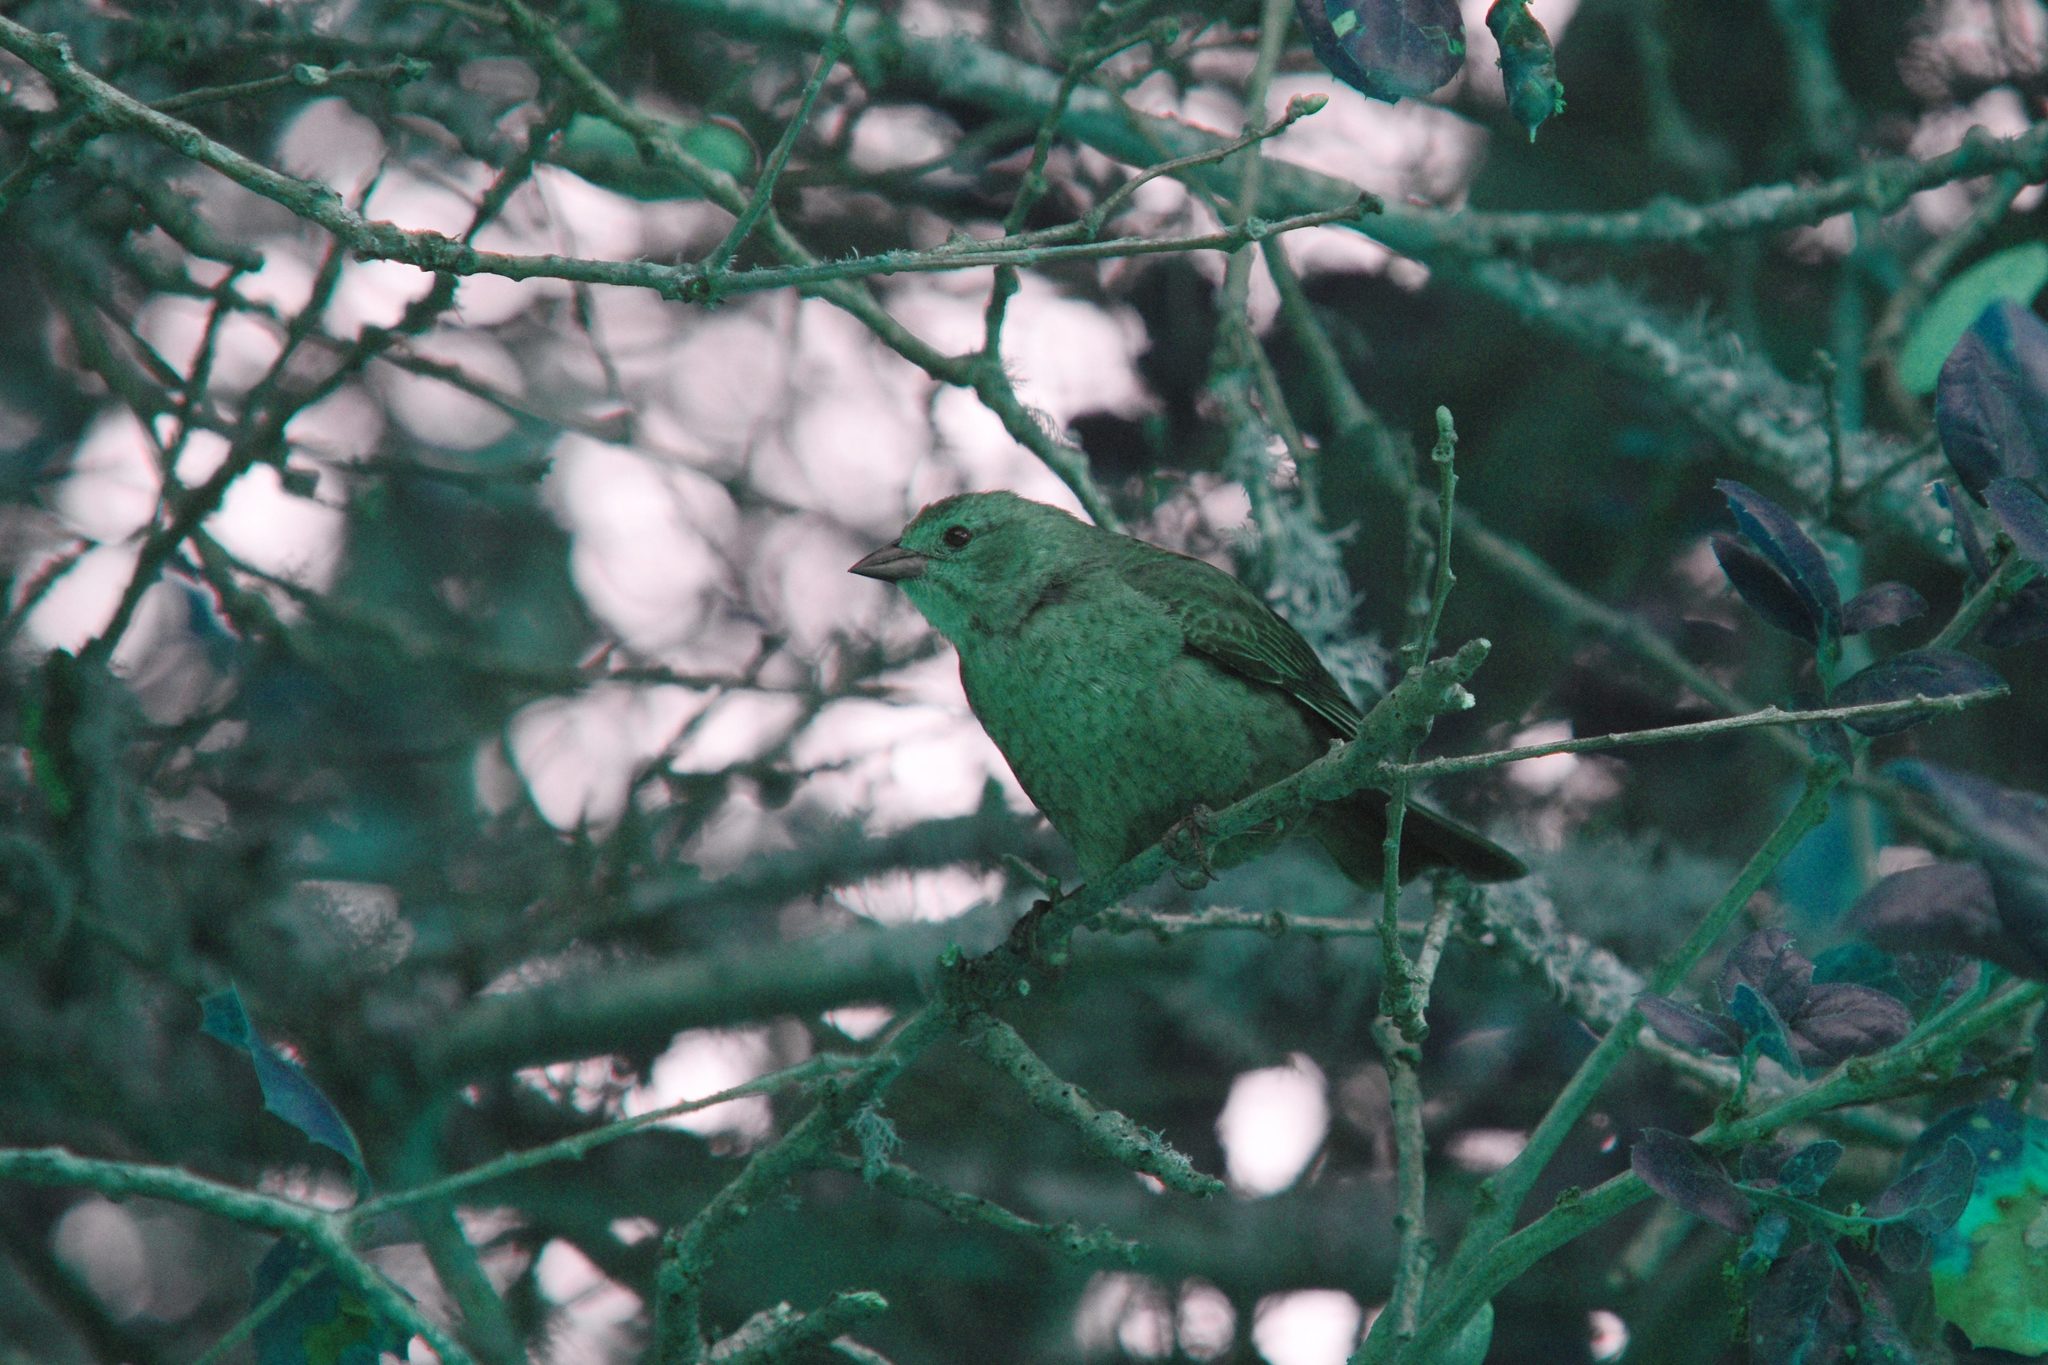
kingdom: Animalia
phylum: Chordata
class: Aves
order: Passeriformes
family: Icteridae
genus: Molothrus
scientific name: Molothrus ater
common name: Brown-headed cowbird
